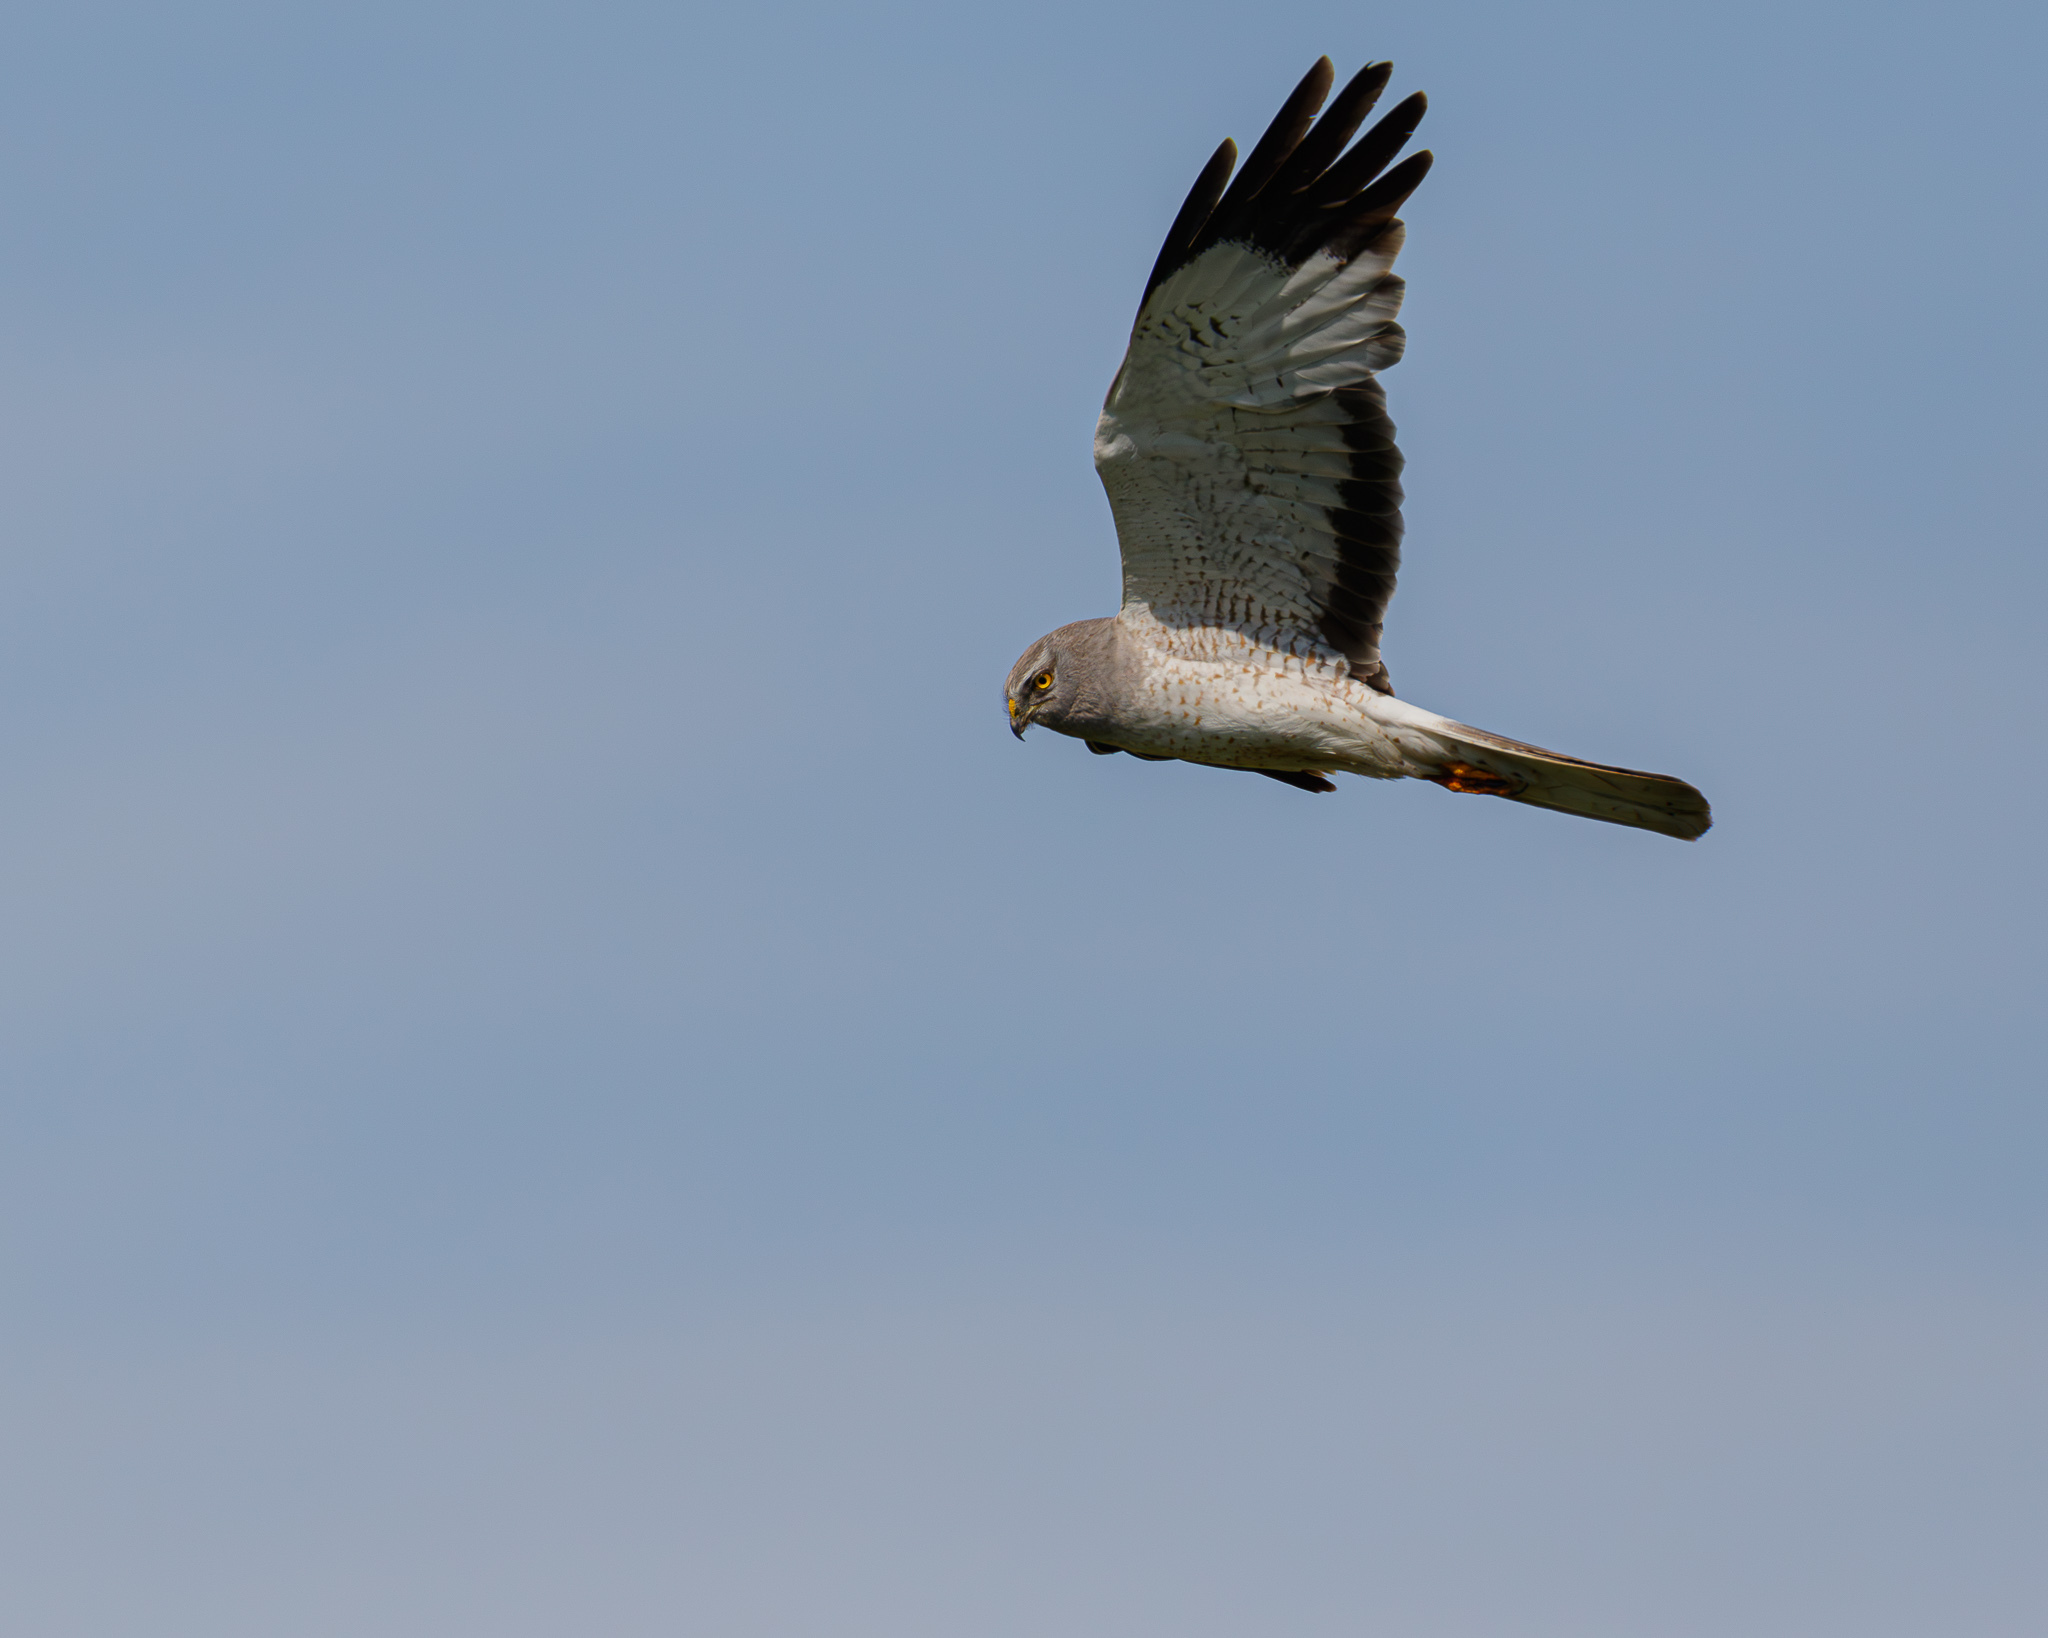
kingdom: Animalia
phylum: Chordata
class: Aves
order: Accipitriformes
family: Accipitridae
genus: Circus
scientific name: Circus cyaneus
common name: Hen harrier
